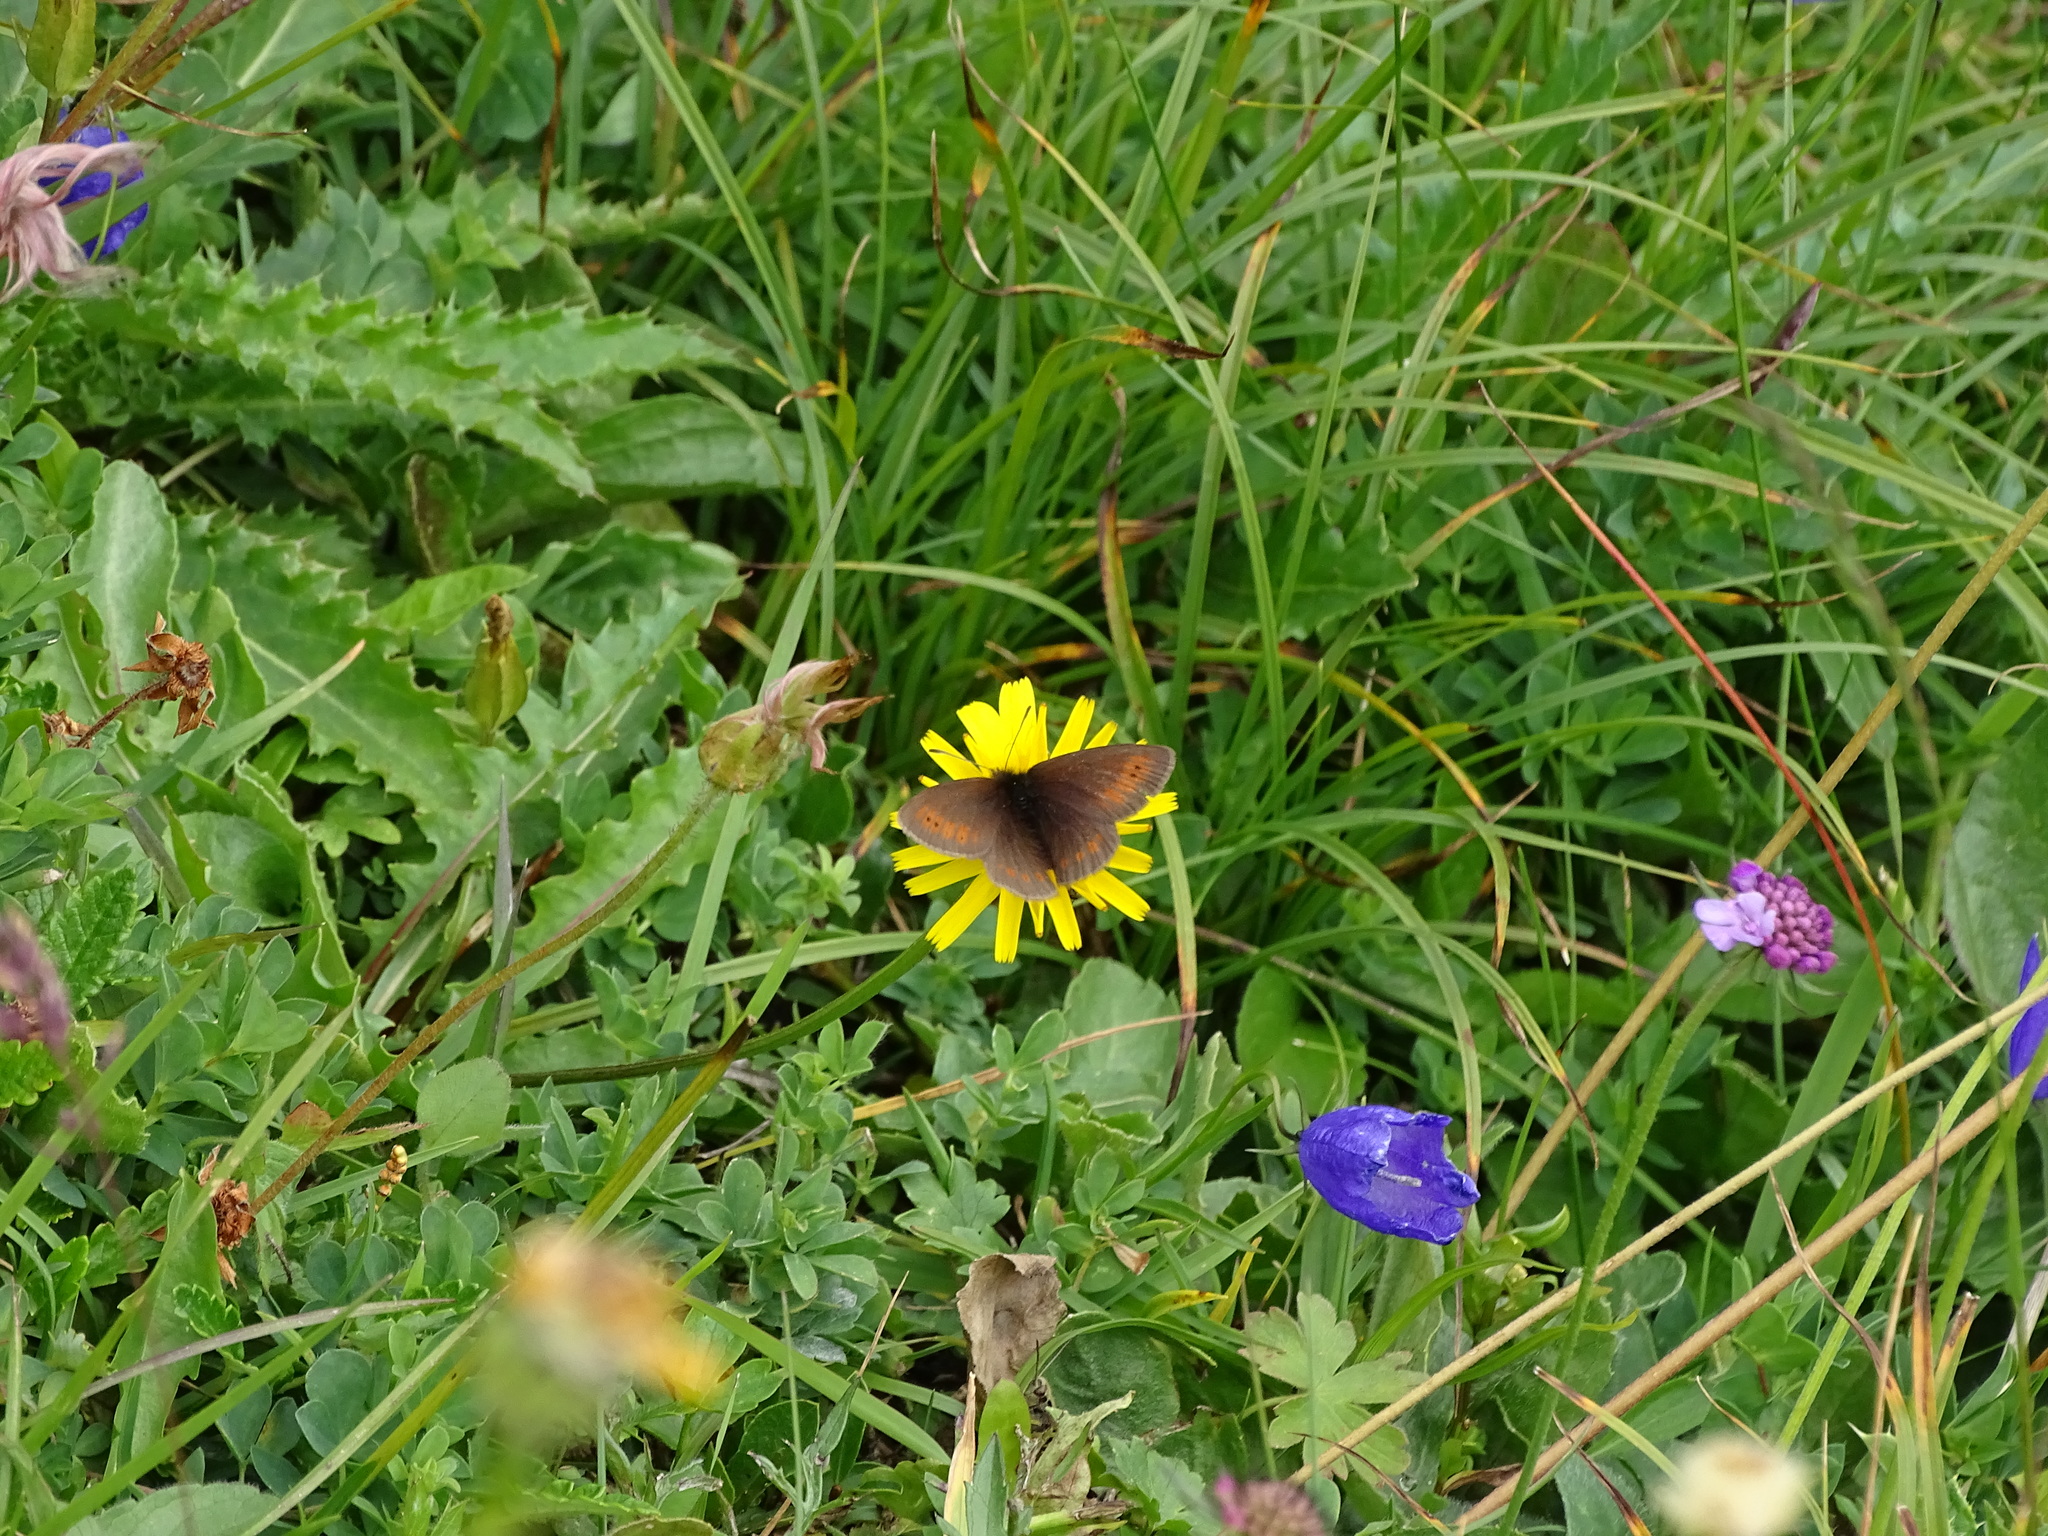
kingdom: Animalia
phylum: Arthropoda
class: Insecta
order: Lepidoptera
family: Nymphalidae
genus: Erebia
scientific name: Erebia epiphron
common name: Mountain ringlet
